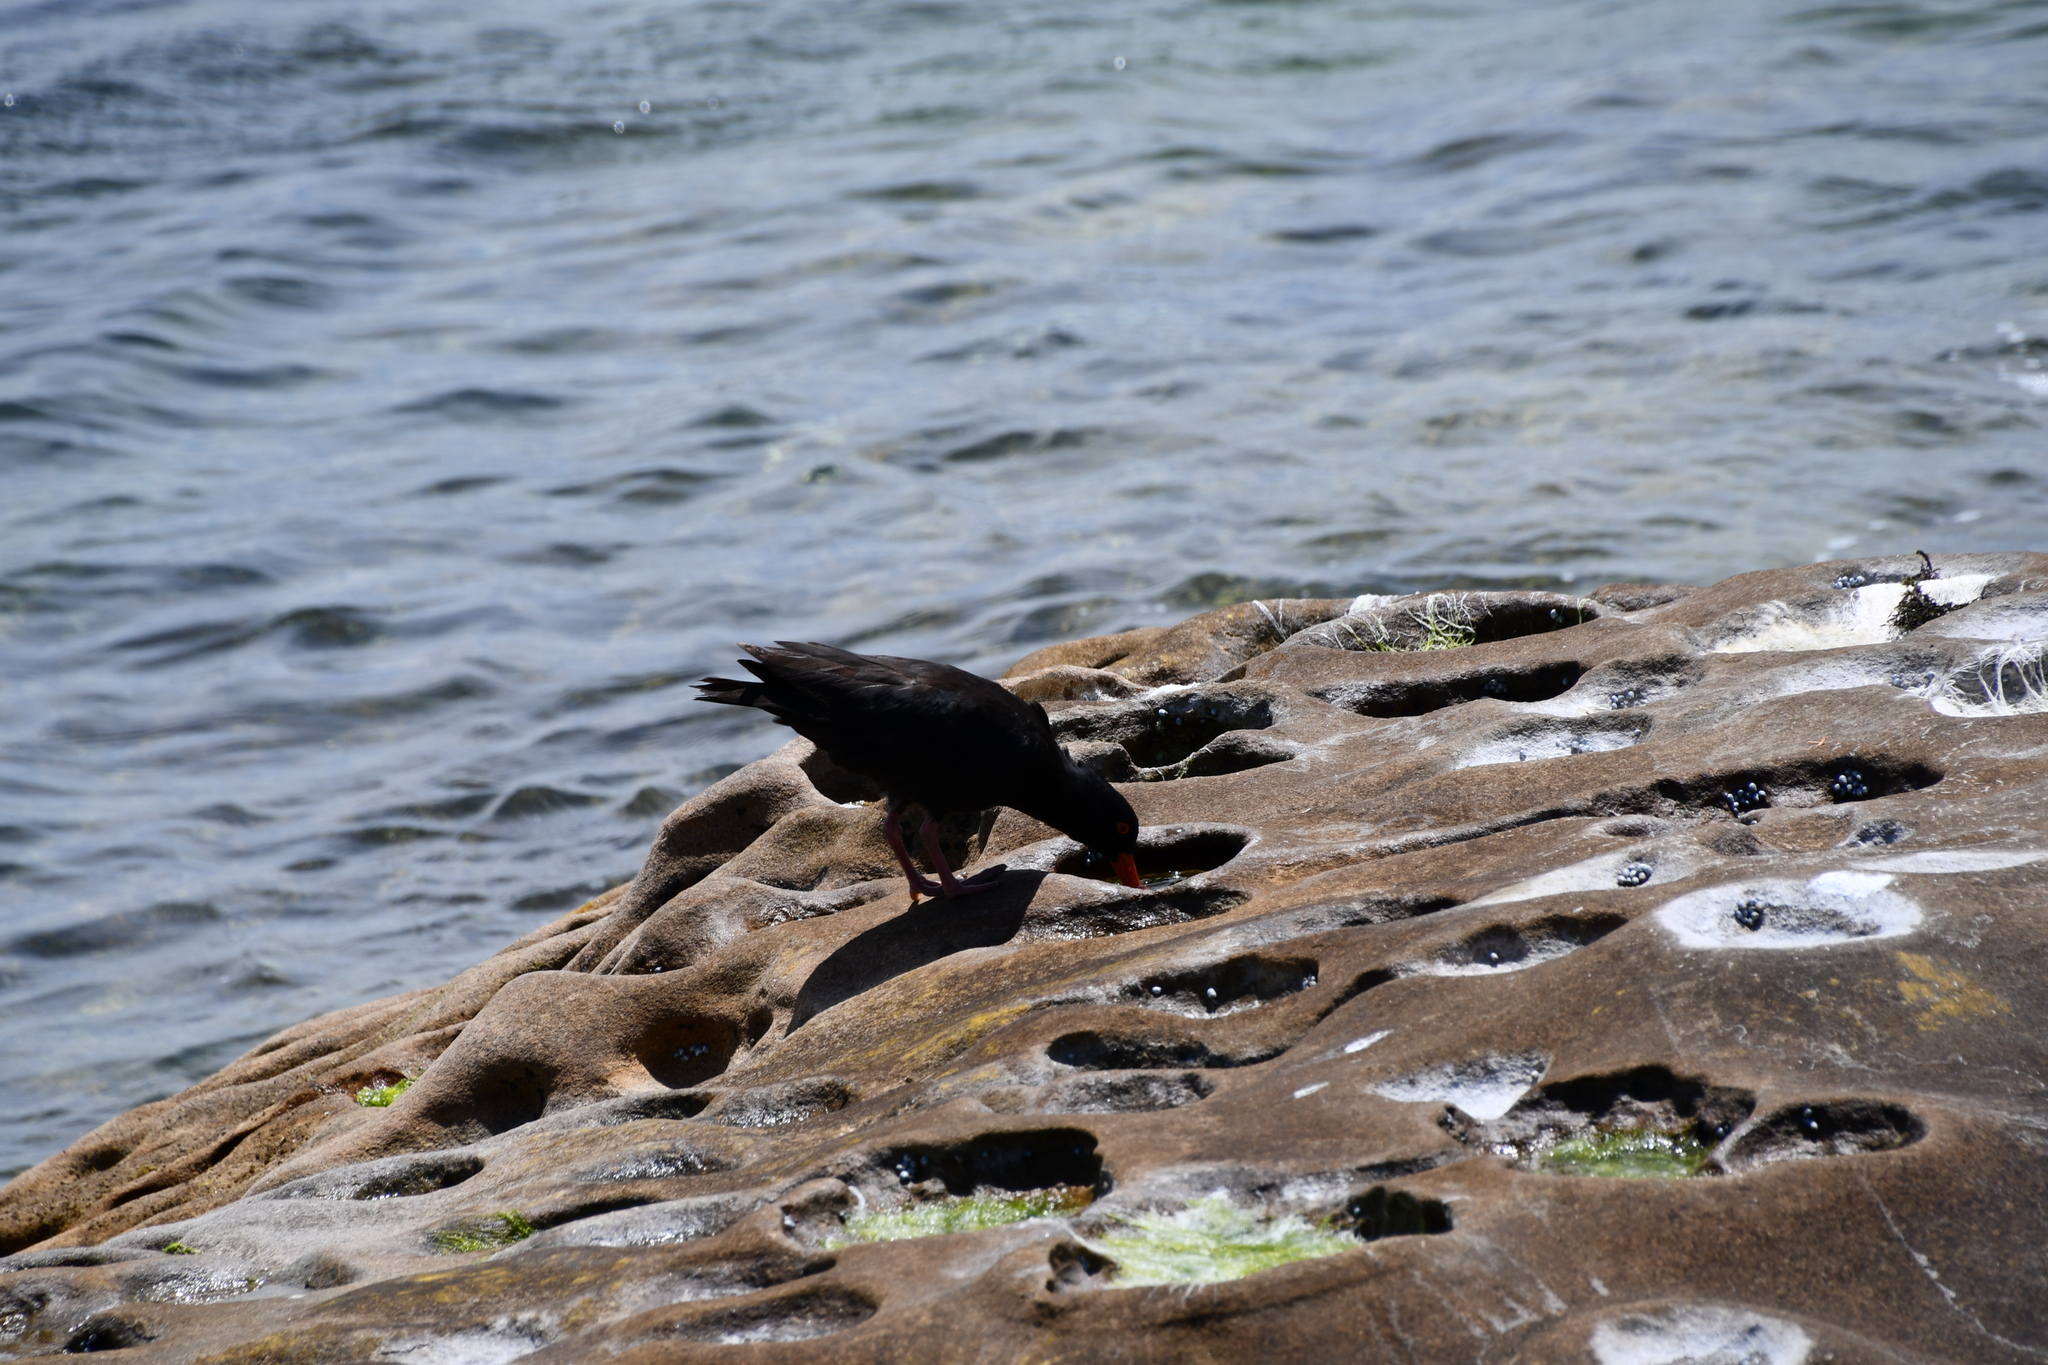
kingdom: Animalia
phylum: Chordata
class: Aves
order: Charadriiformes
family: Haematopodidae
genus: Haematopus
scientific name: Haematopus fuliginosus
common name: Sooty oystercatcher
